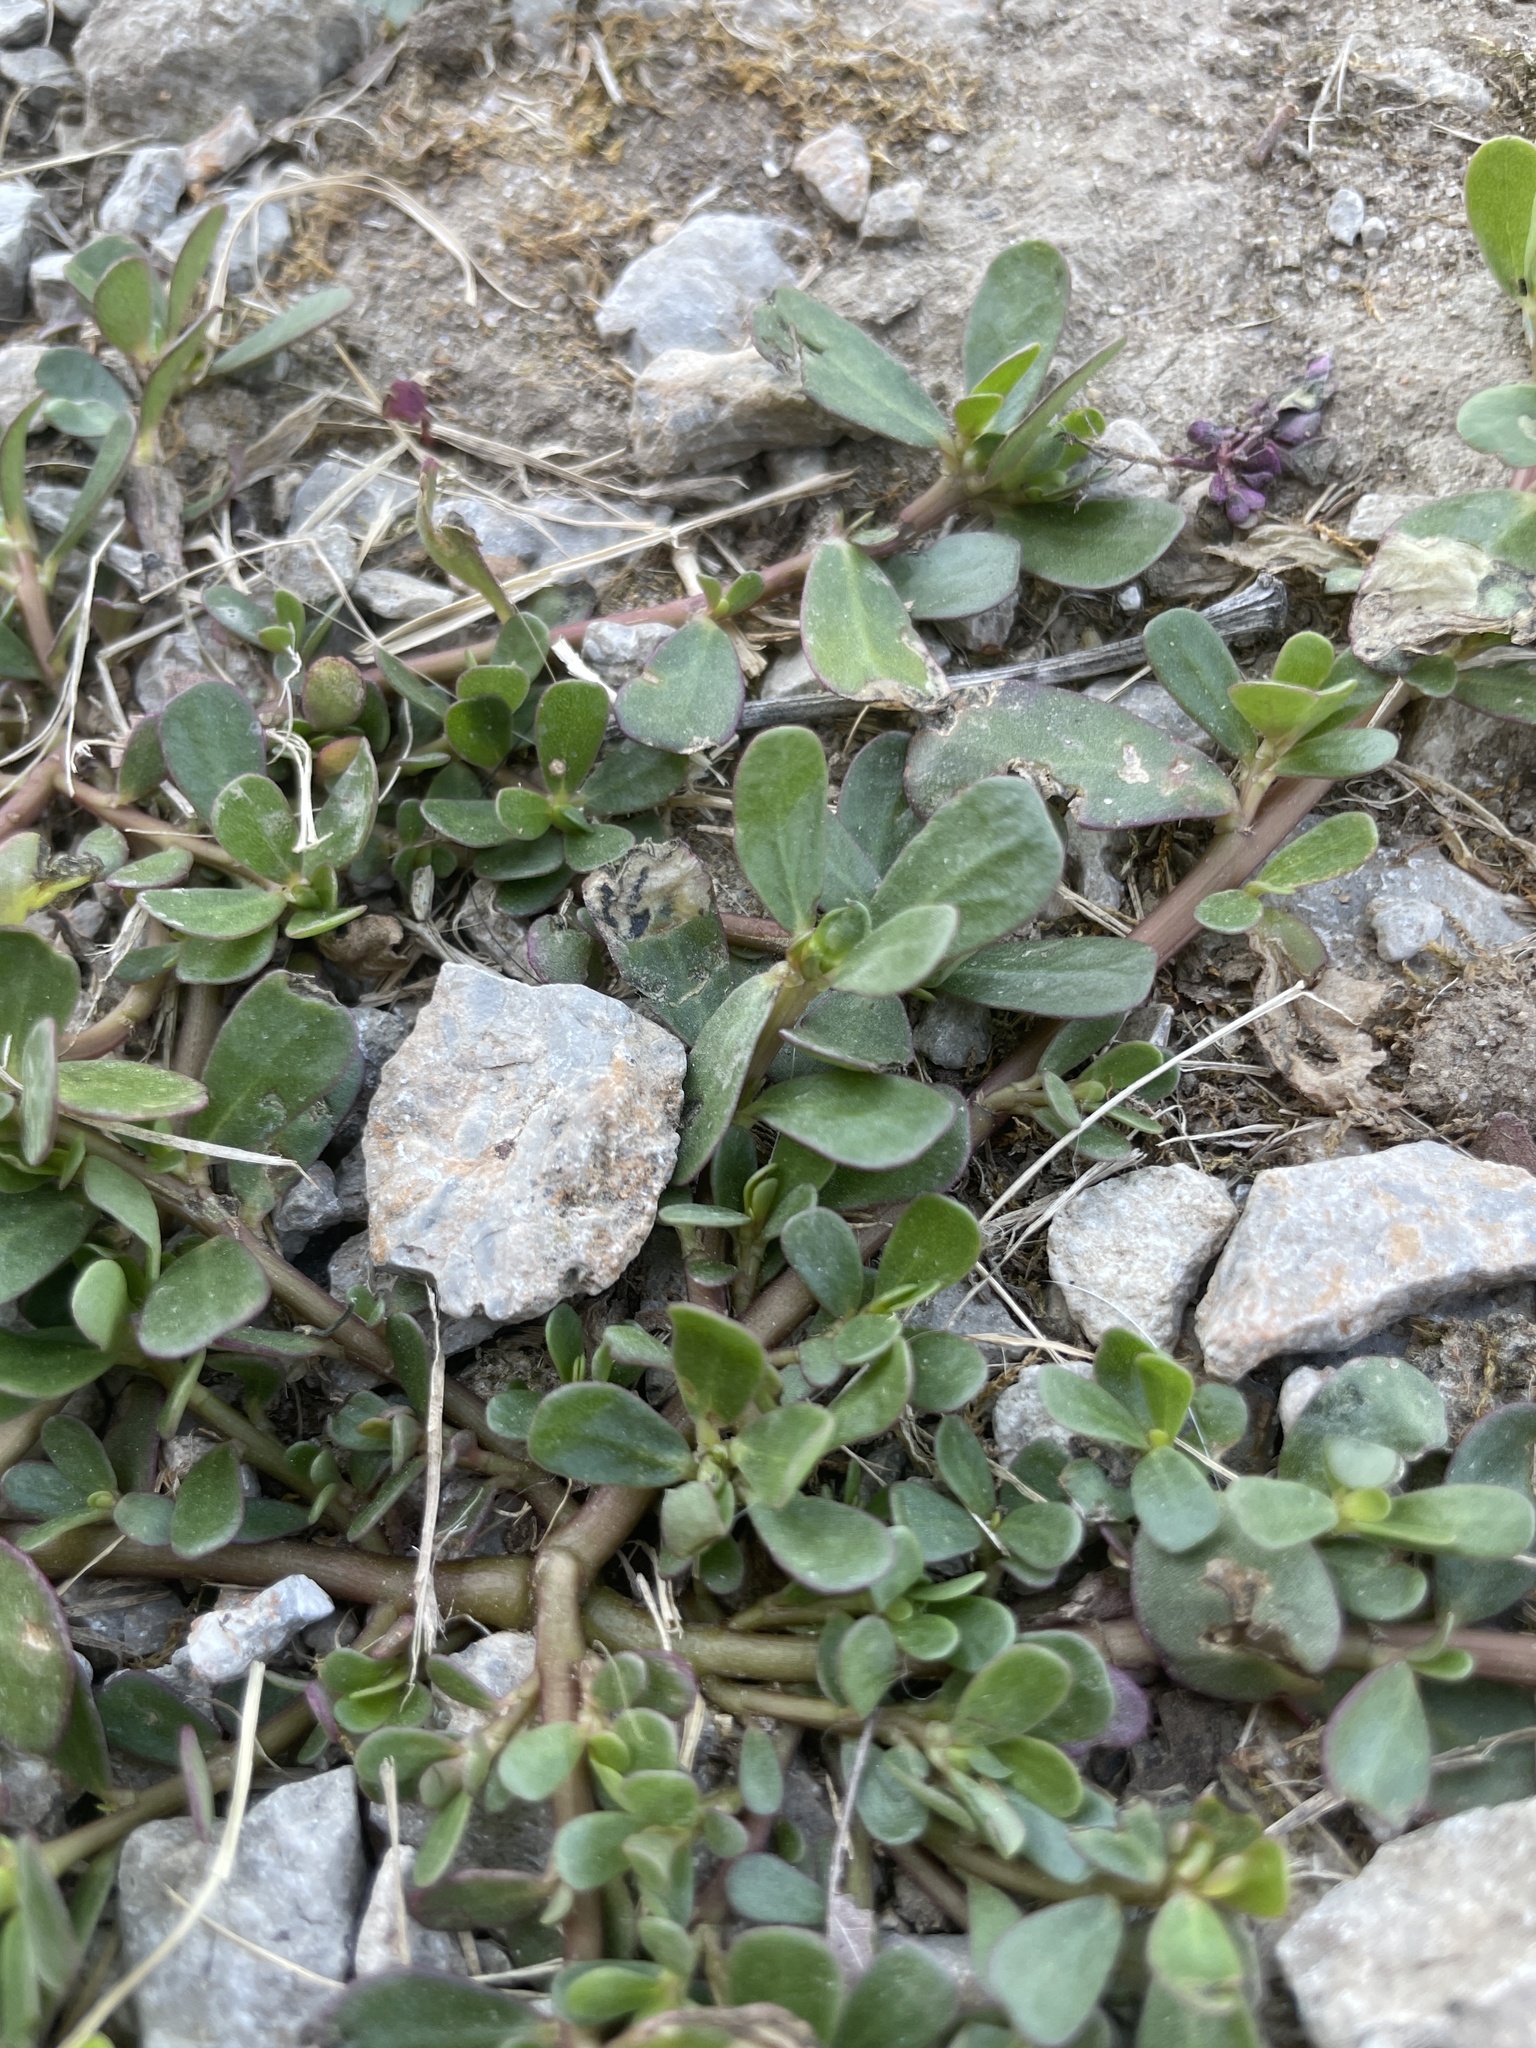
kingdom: Plantae
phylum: Tracheophyta
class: Magnoliopsida
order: Caryophyllales
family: Portulacaceae
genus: Portulaca
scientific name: Portulaca oleracea
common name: Common purslane
